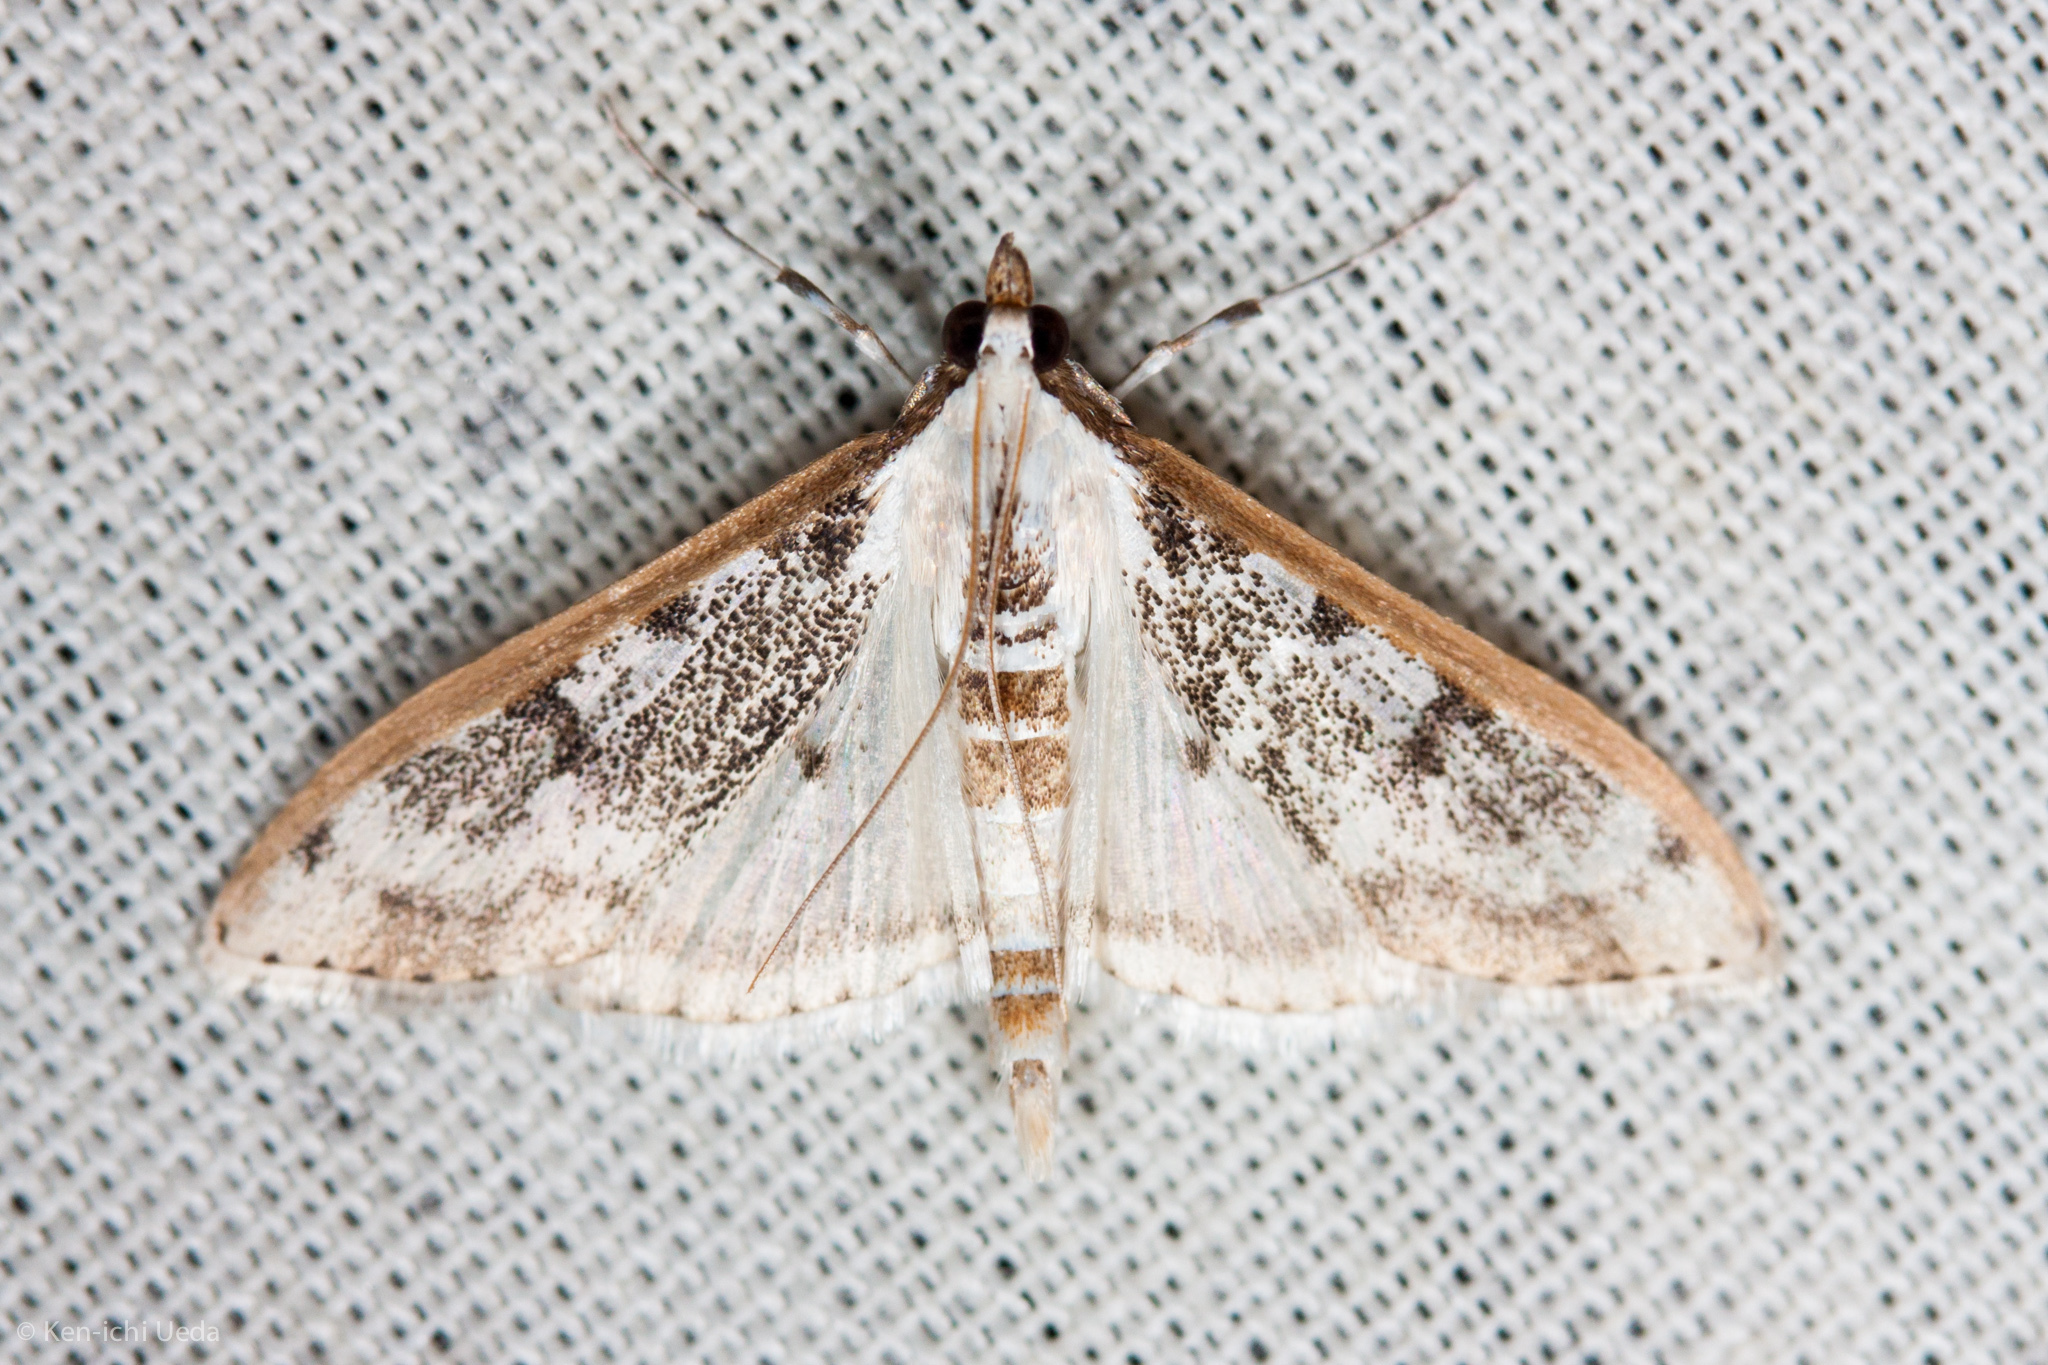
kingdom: Animalia
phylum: Arthropoda
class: Insecta
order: Lepidoptera
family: Crambidae
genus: Palpita
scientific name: Palpita gracilalis
